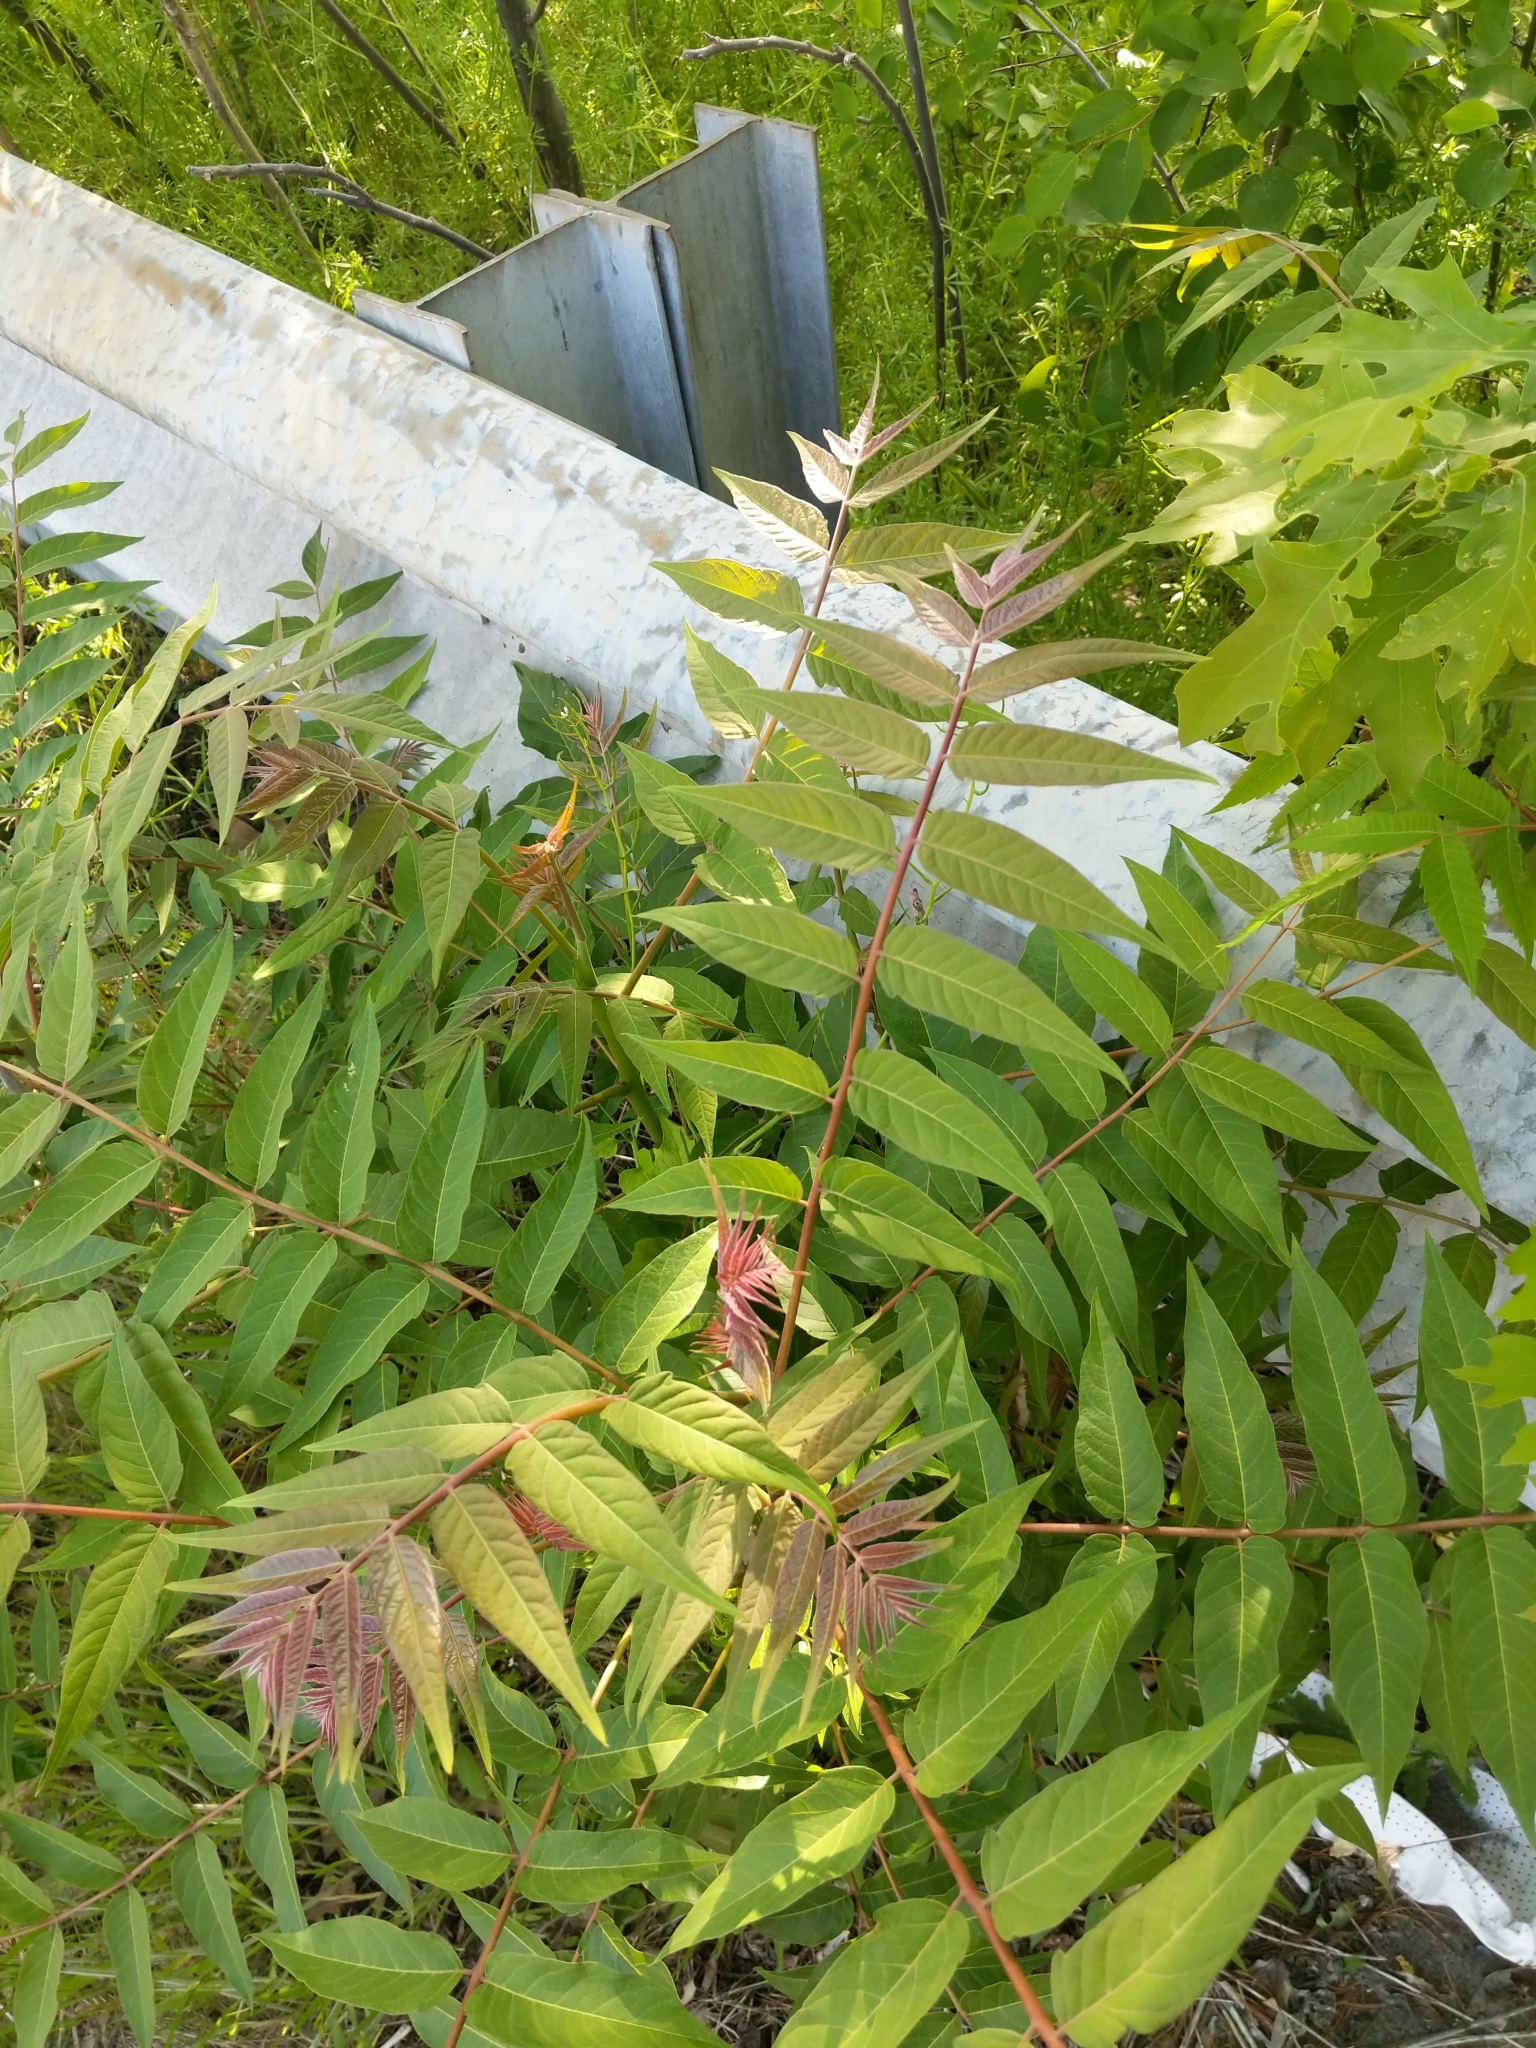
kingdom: Plantae
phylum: Tracheophyta
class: Magnoliopsida
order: Sapindales
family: Simaroubaceae
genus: Ailanthus
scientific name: Ailanthus altissima
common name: Tree-of-heaven
